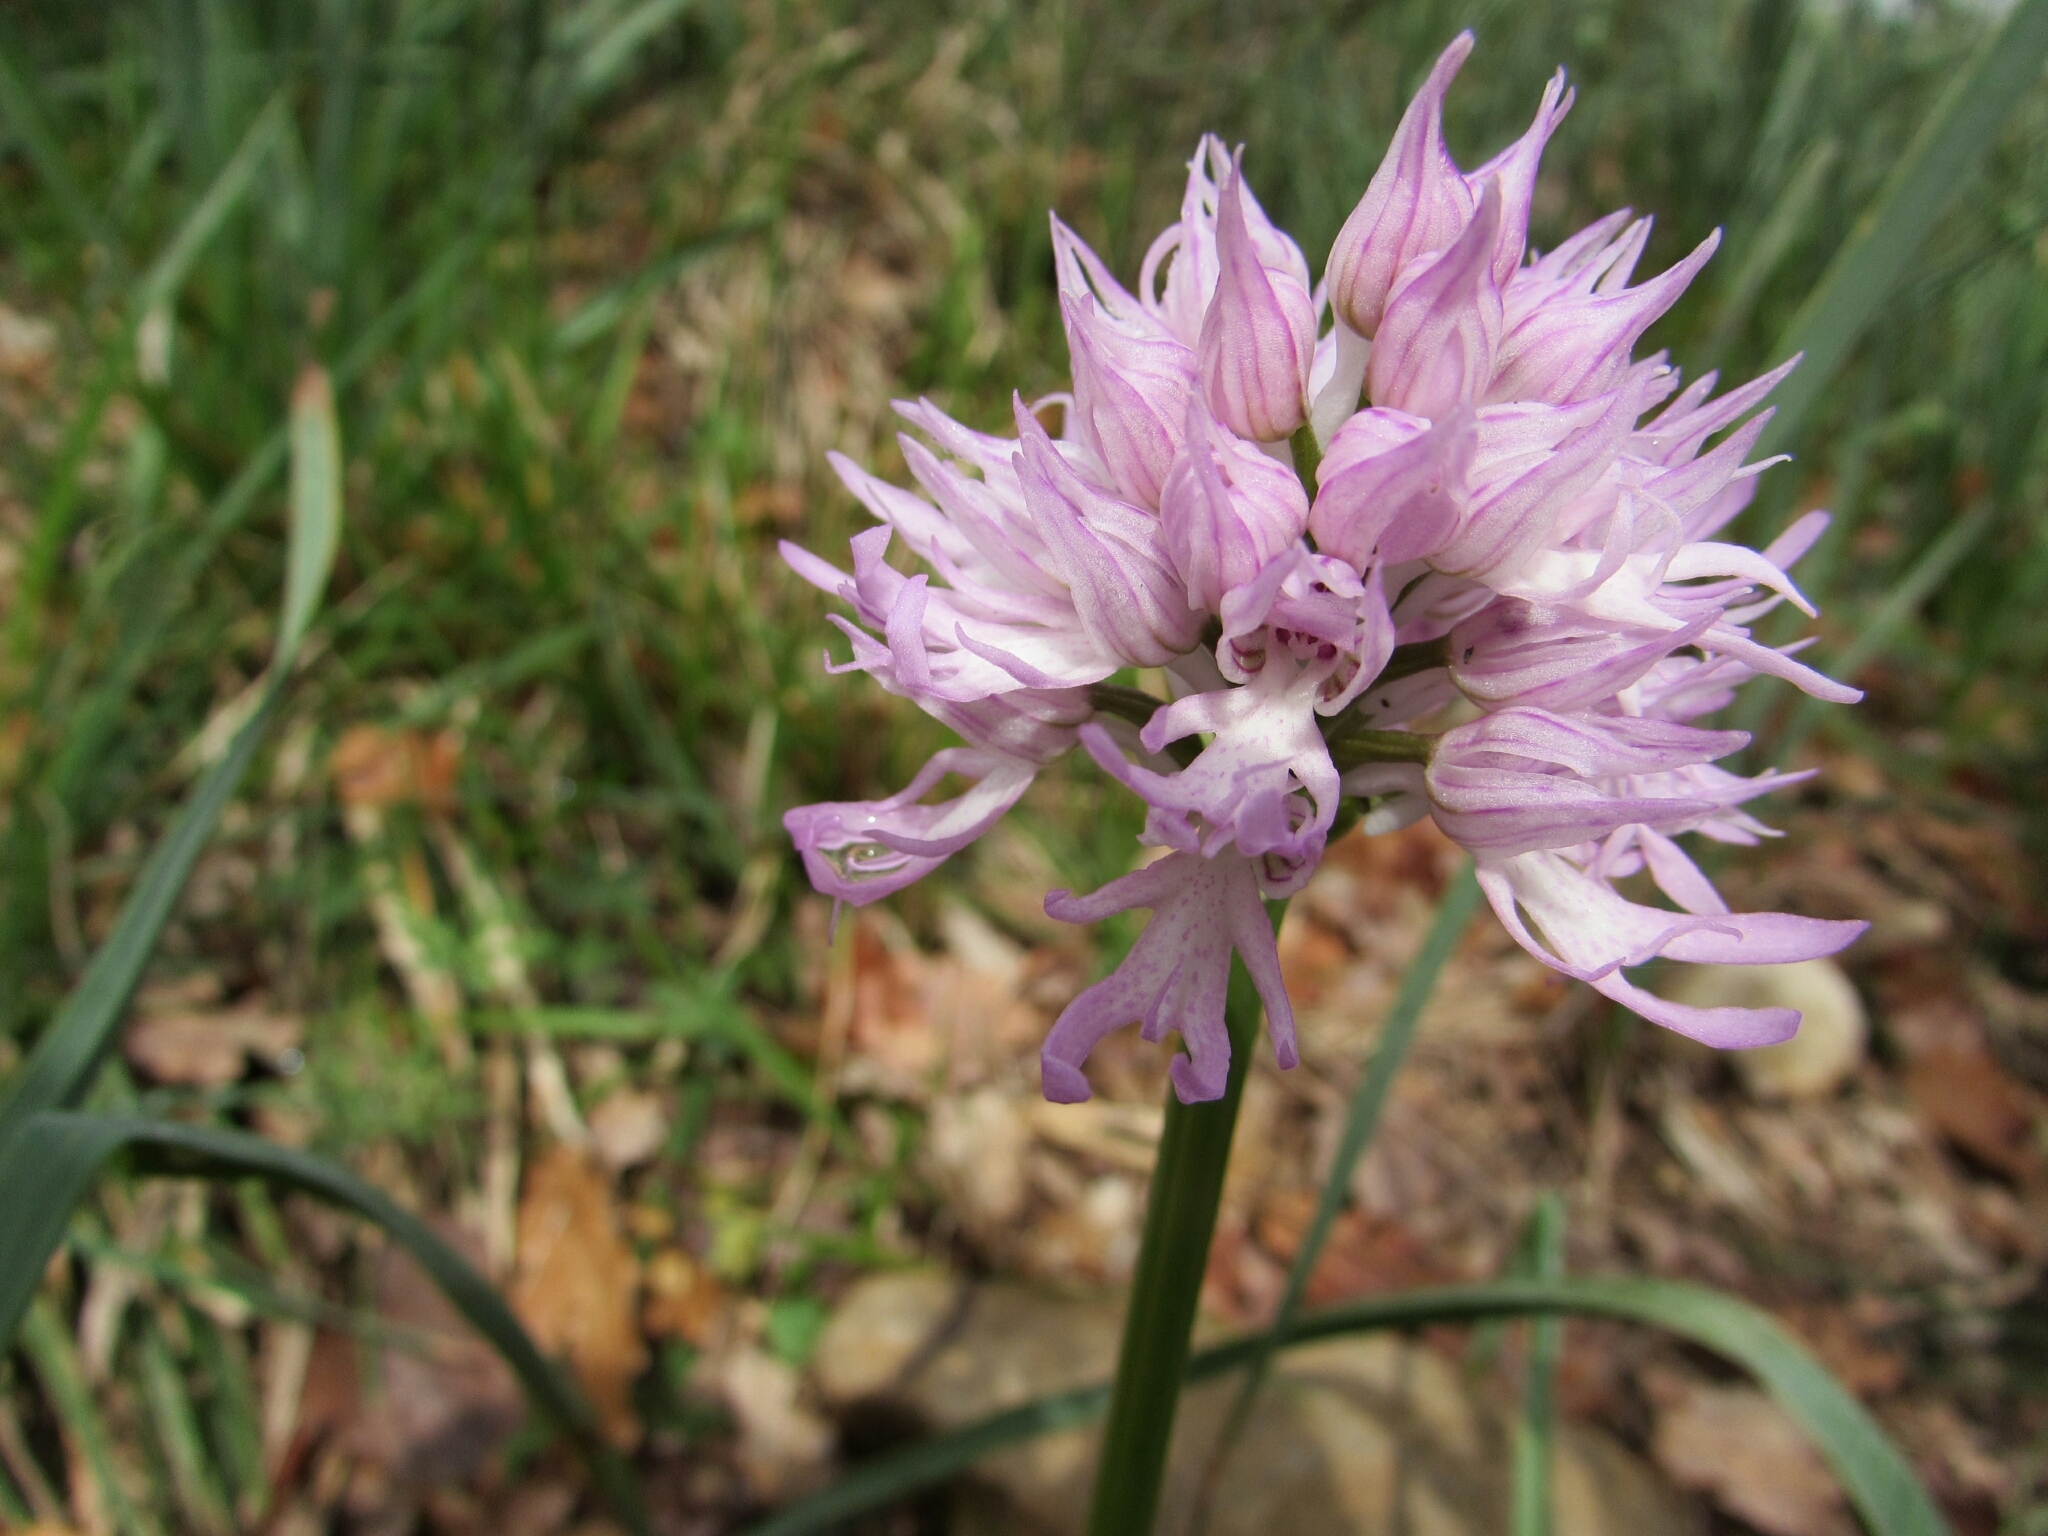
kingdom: Plantae
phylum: Tracheophyta
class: Liliopsida
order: Asparagales
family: Orchidaceae
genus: Orchis
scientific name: Orchis italica
